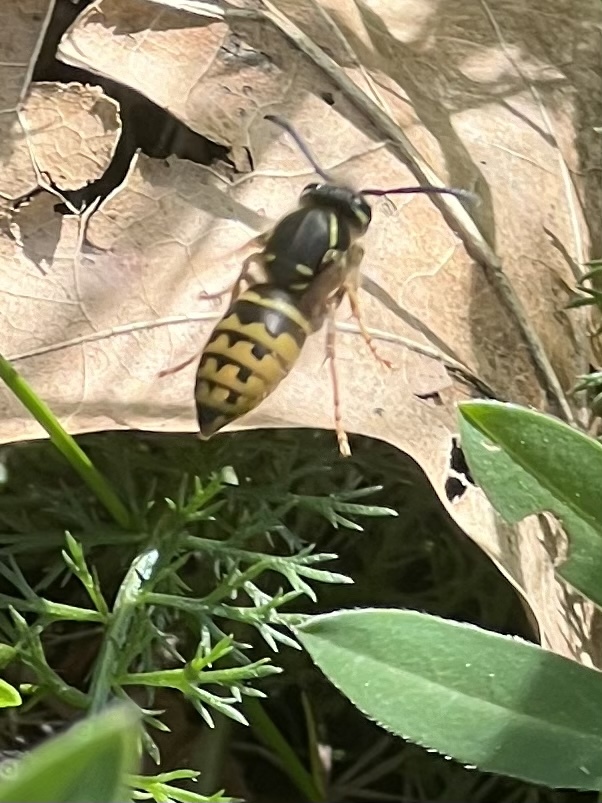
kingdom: Animalia
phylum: Arthropoda
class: Insecta
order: Hymenoptera
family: Vespidae
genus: Vespula
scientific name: Vespula alascensis
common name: Alaska yellowjacket
